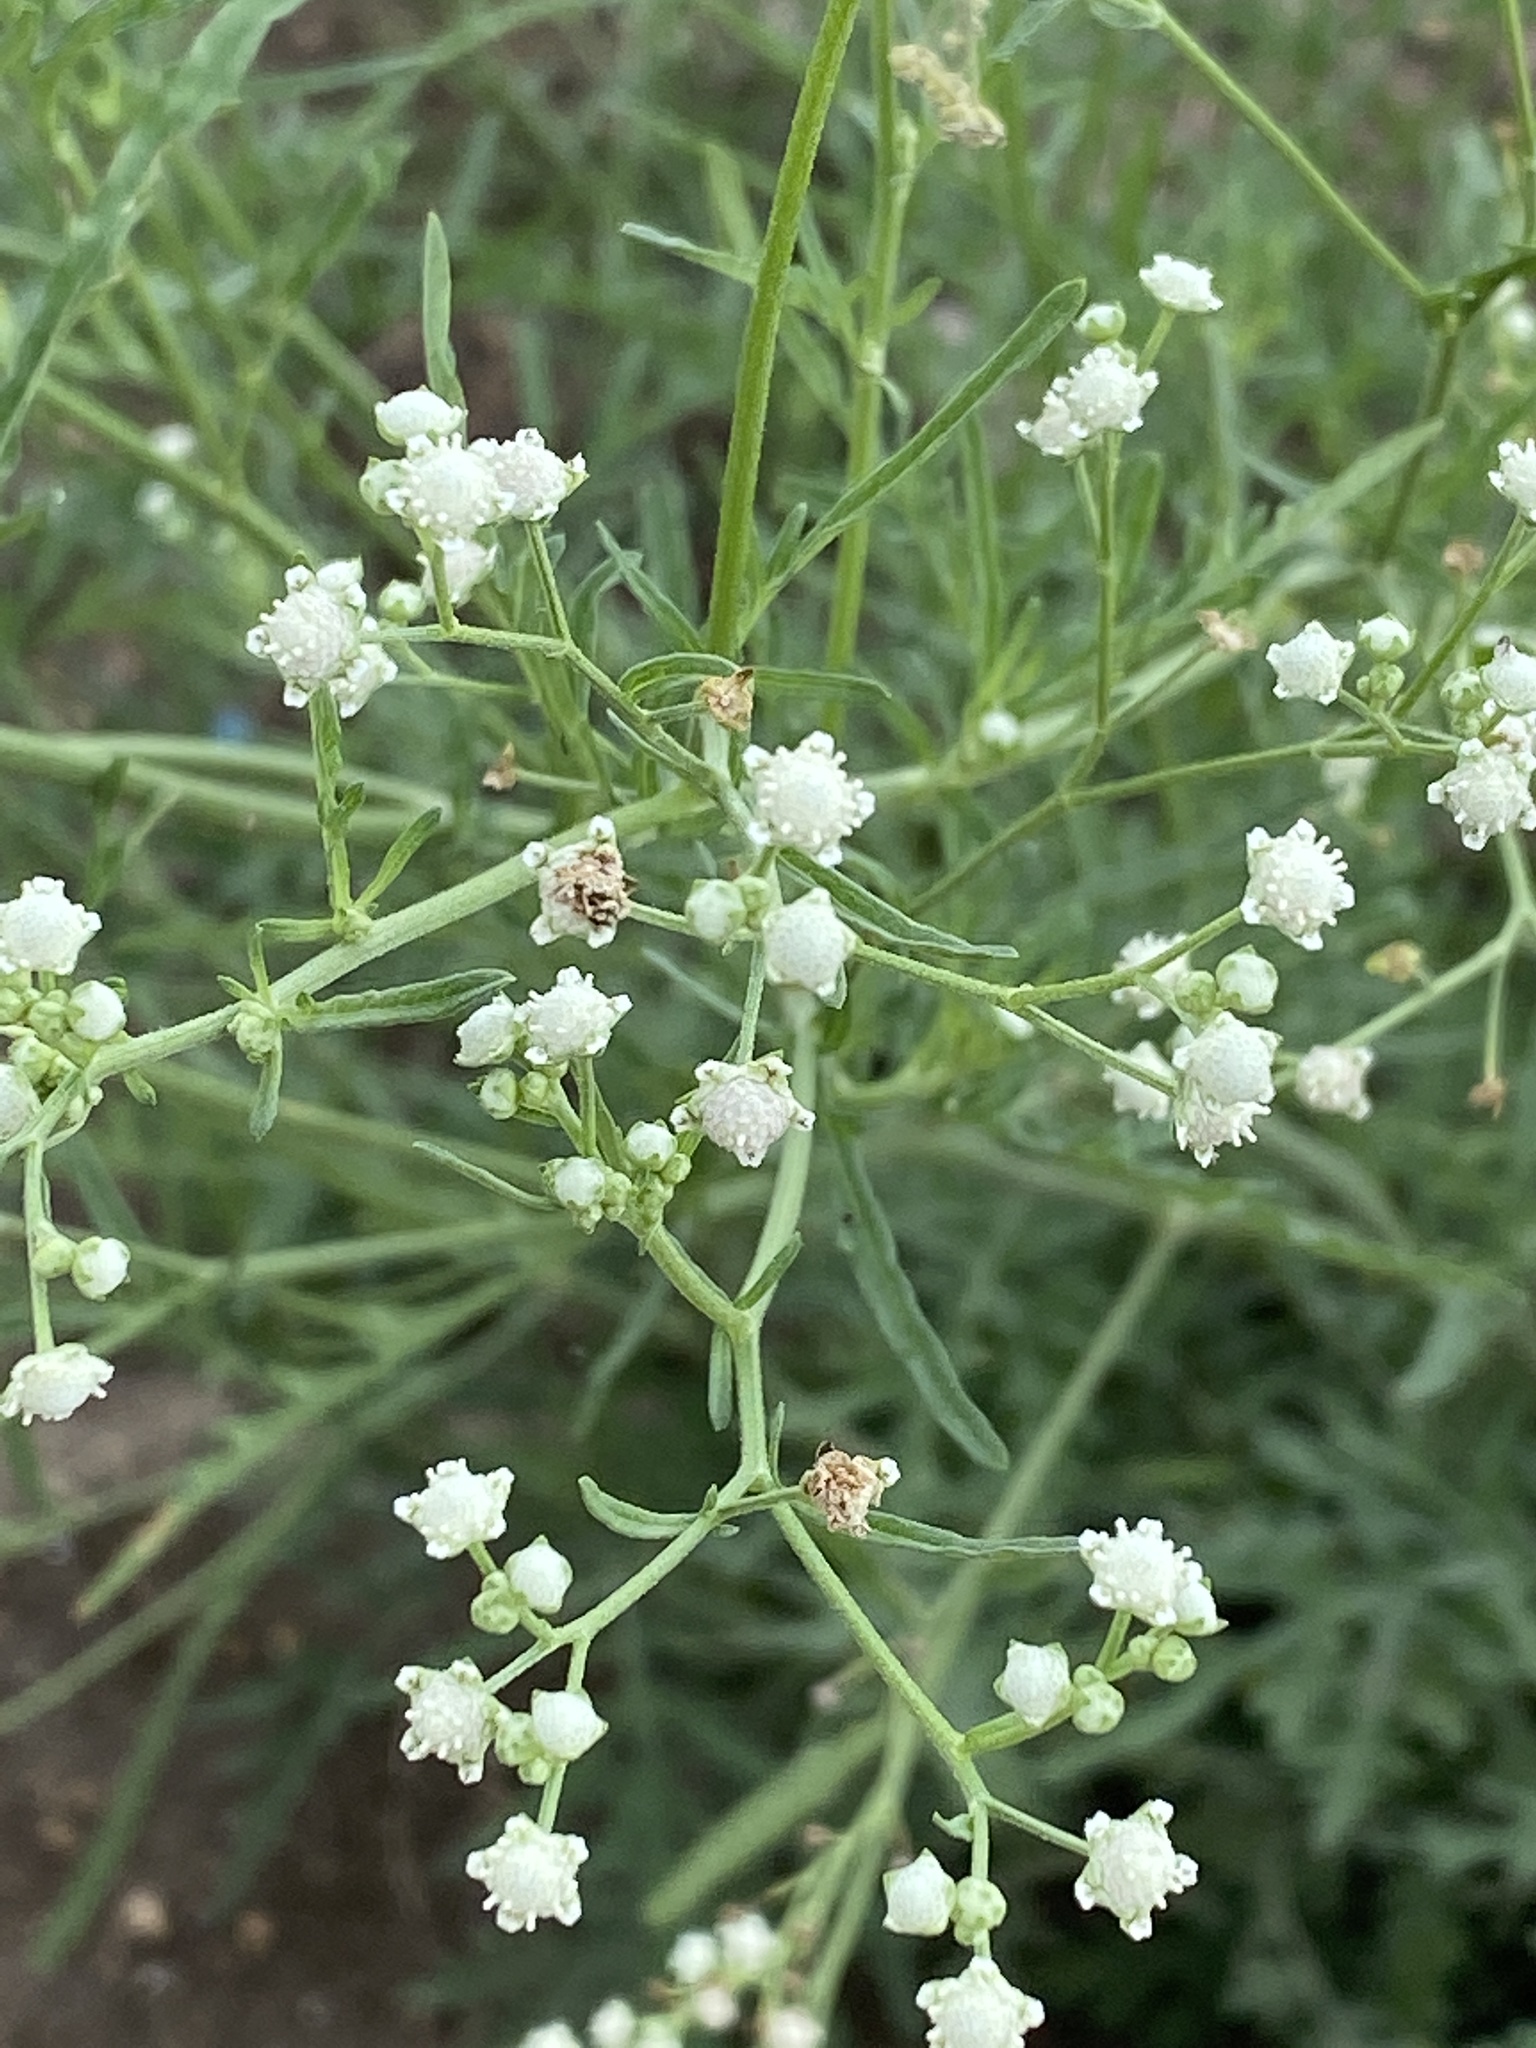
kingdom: Plantae
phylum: Tracheophyta
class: Magnoliopsida
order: Asterales
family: Asteraceae
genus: Parthenium
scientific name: Parthenium hysterophorus
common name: Santa maria feverfew
